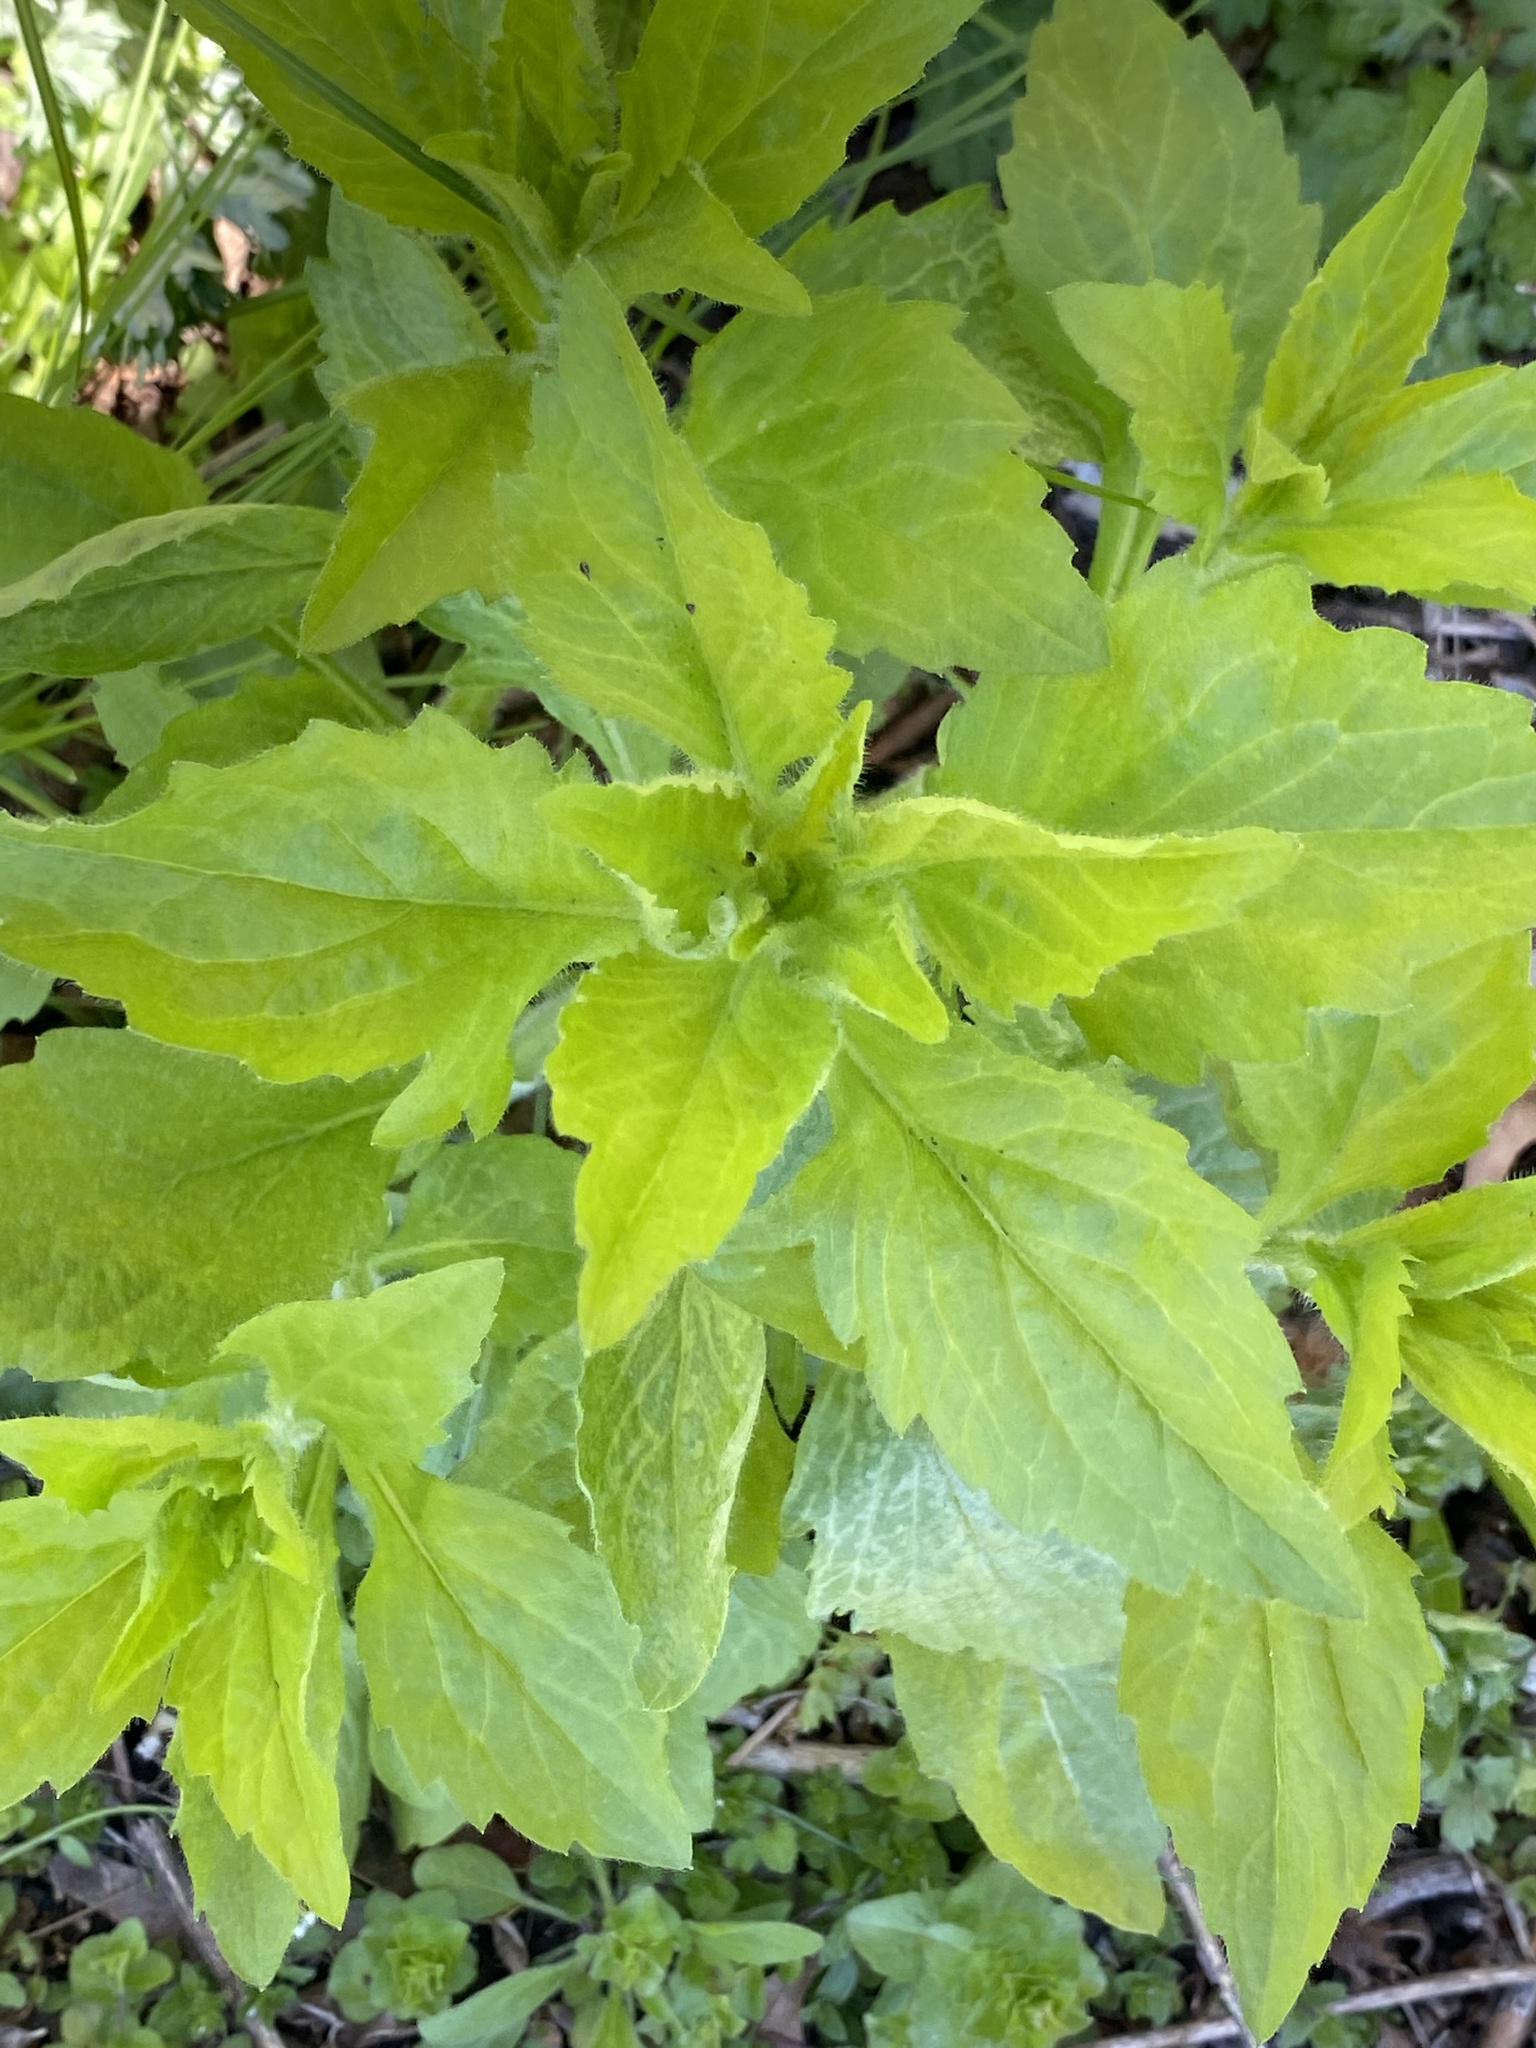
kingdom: Plantae
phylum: Tracheophyta
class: Magnoliopsida
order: Asterales
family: Asteraceae
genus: Erigeron
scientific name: Erigeron annuus
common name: Tall fleabane
